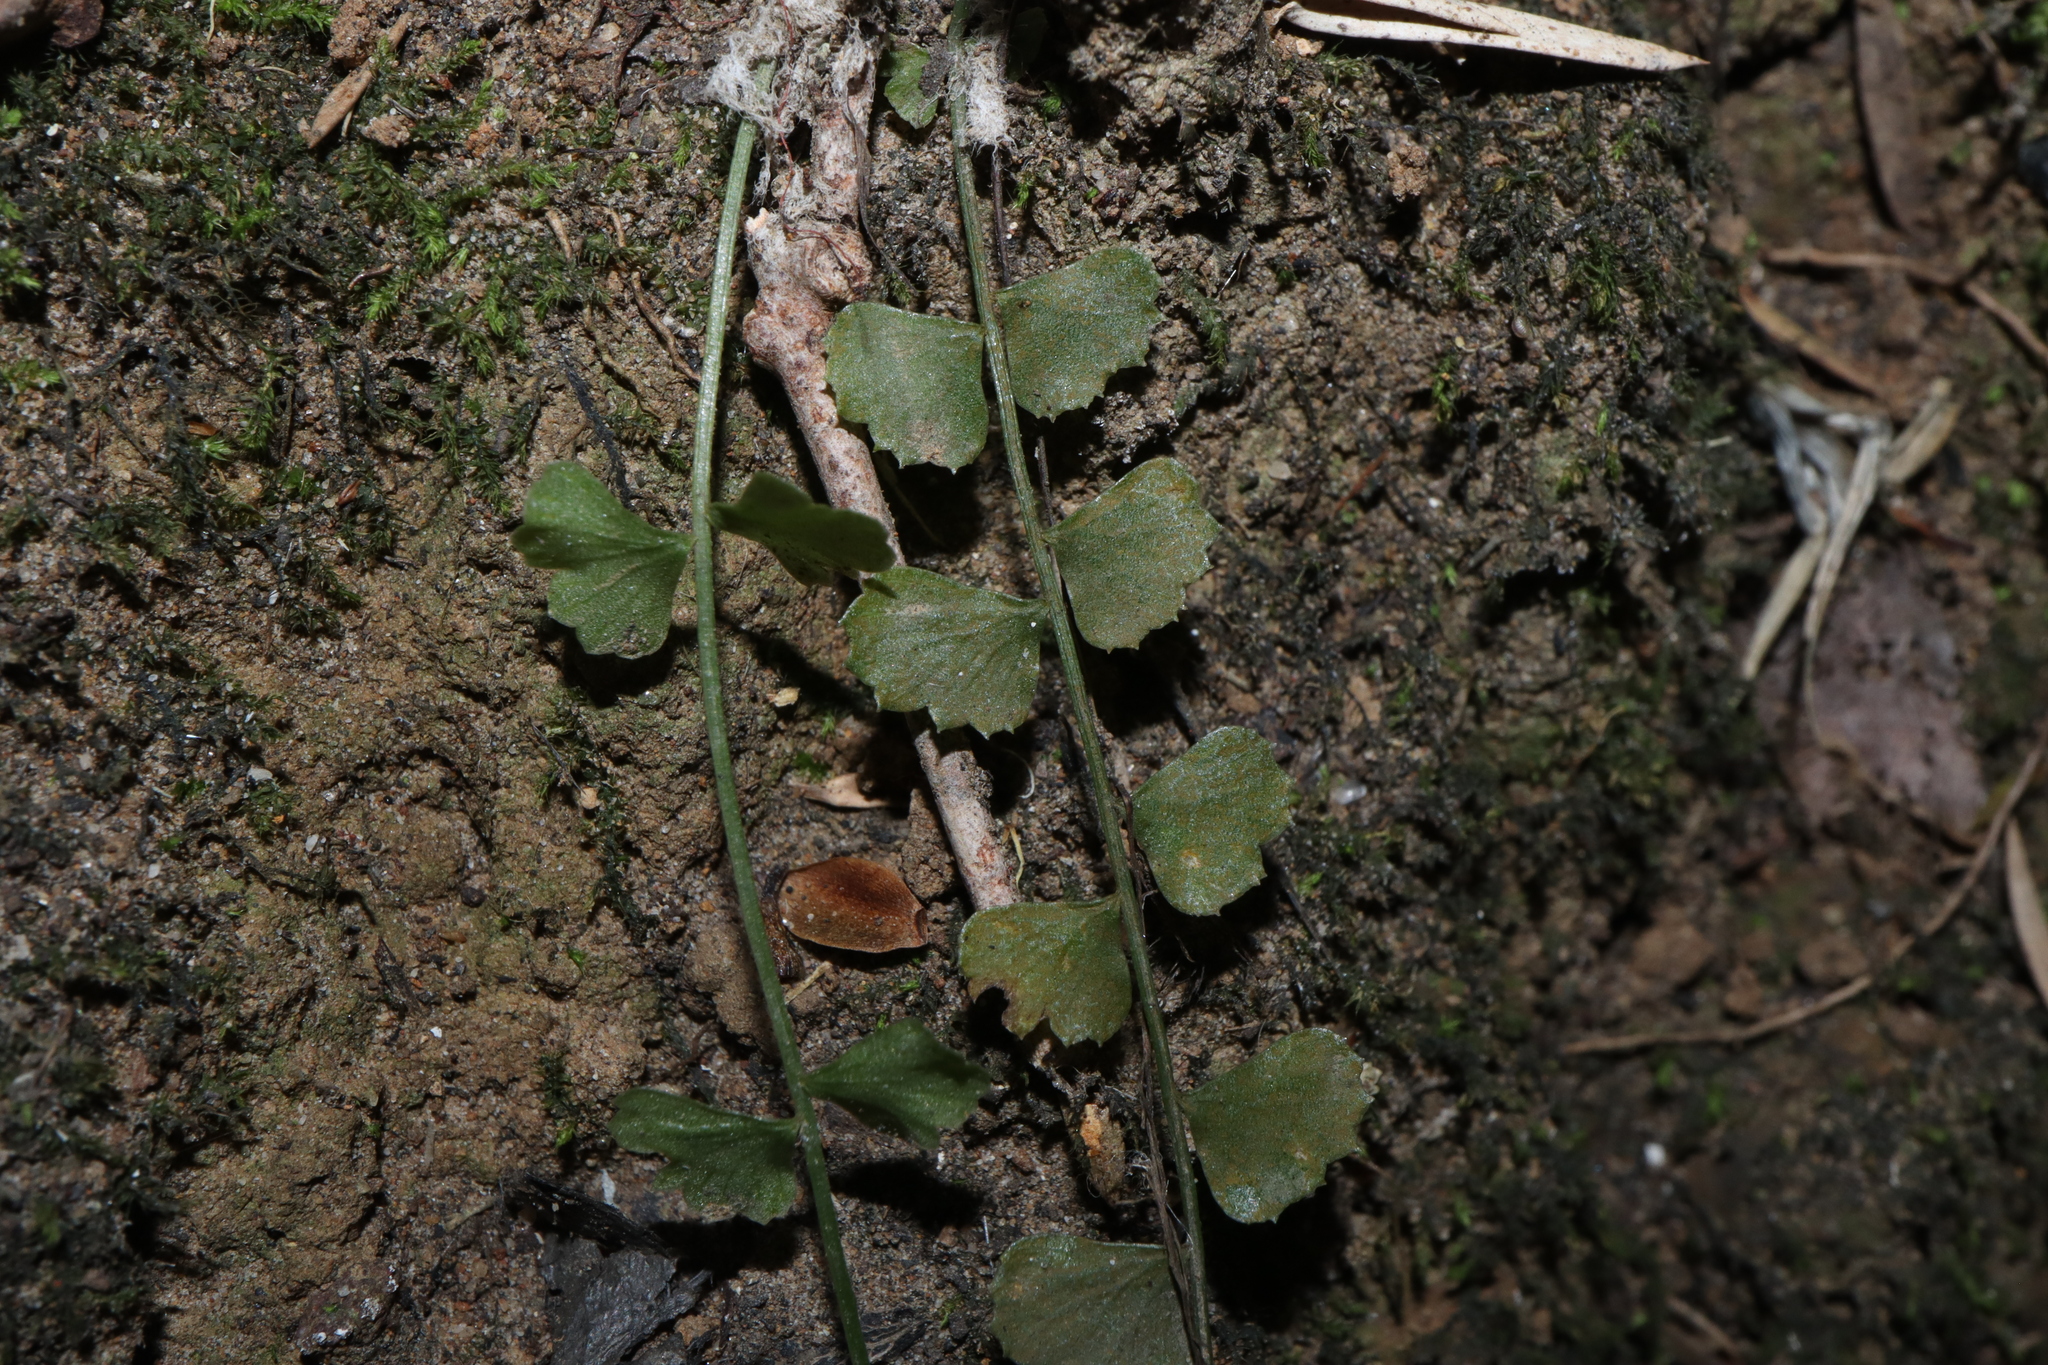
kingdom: Plantae
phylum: Tracheophyta
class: Polypodiopsida
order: Polypodiales
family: Aspleniaceae
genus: Asplenium
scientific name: Asplenium flabellifolium
